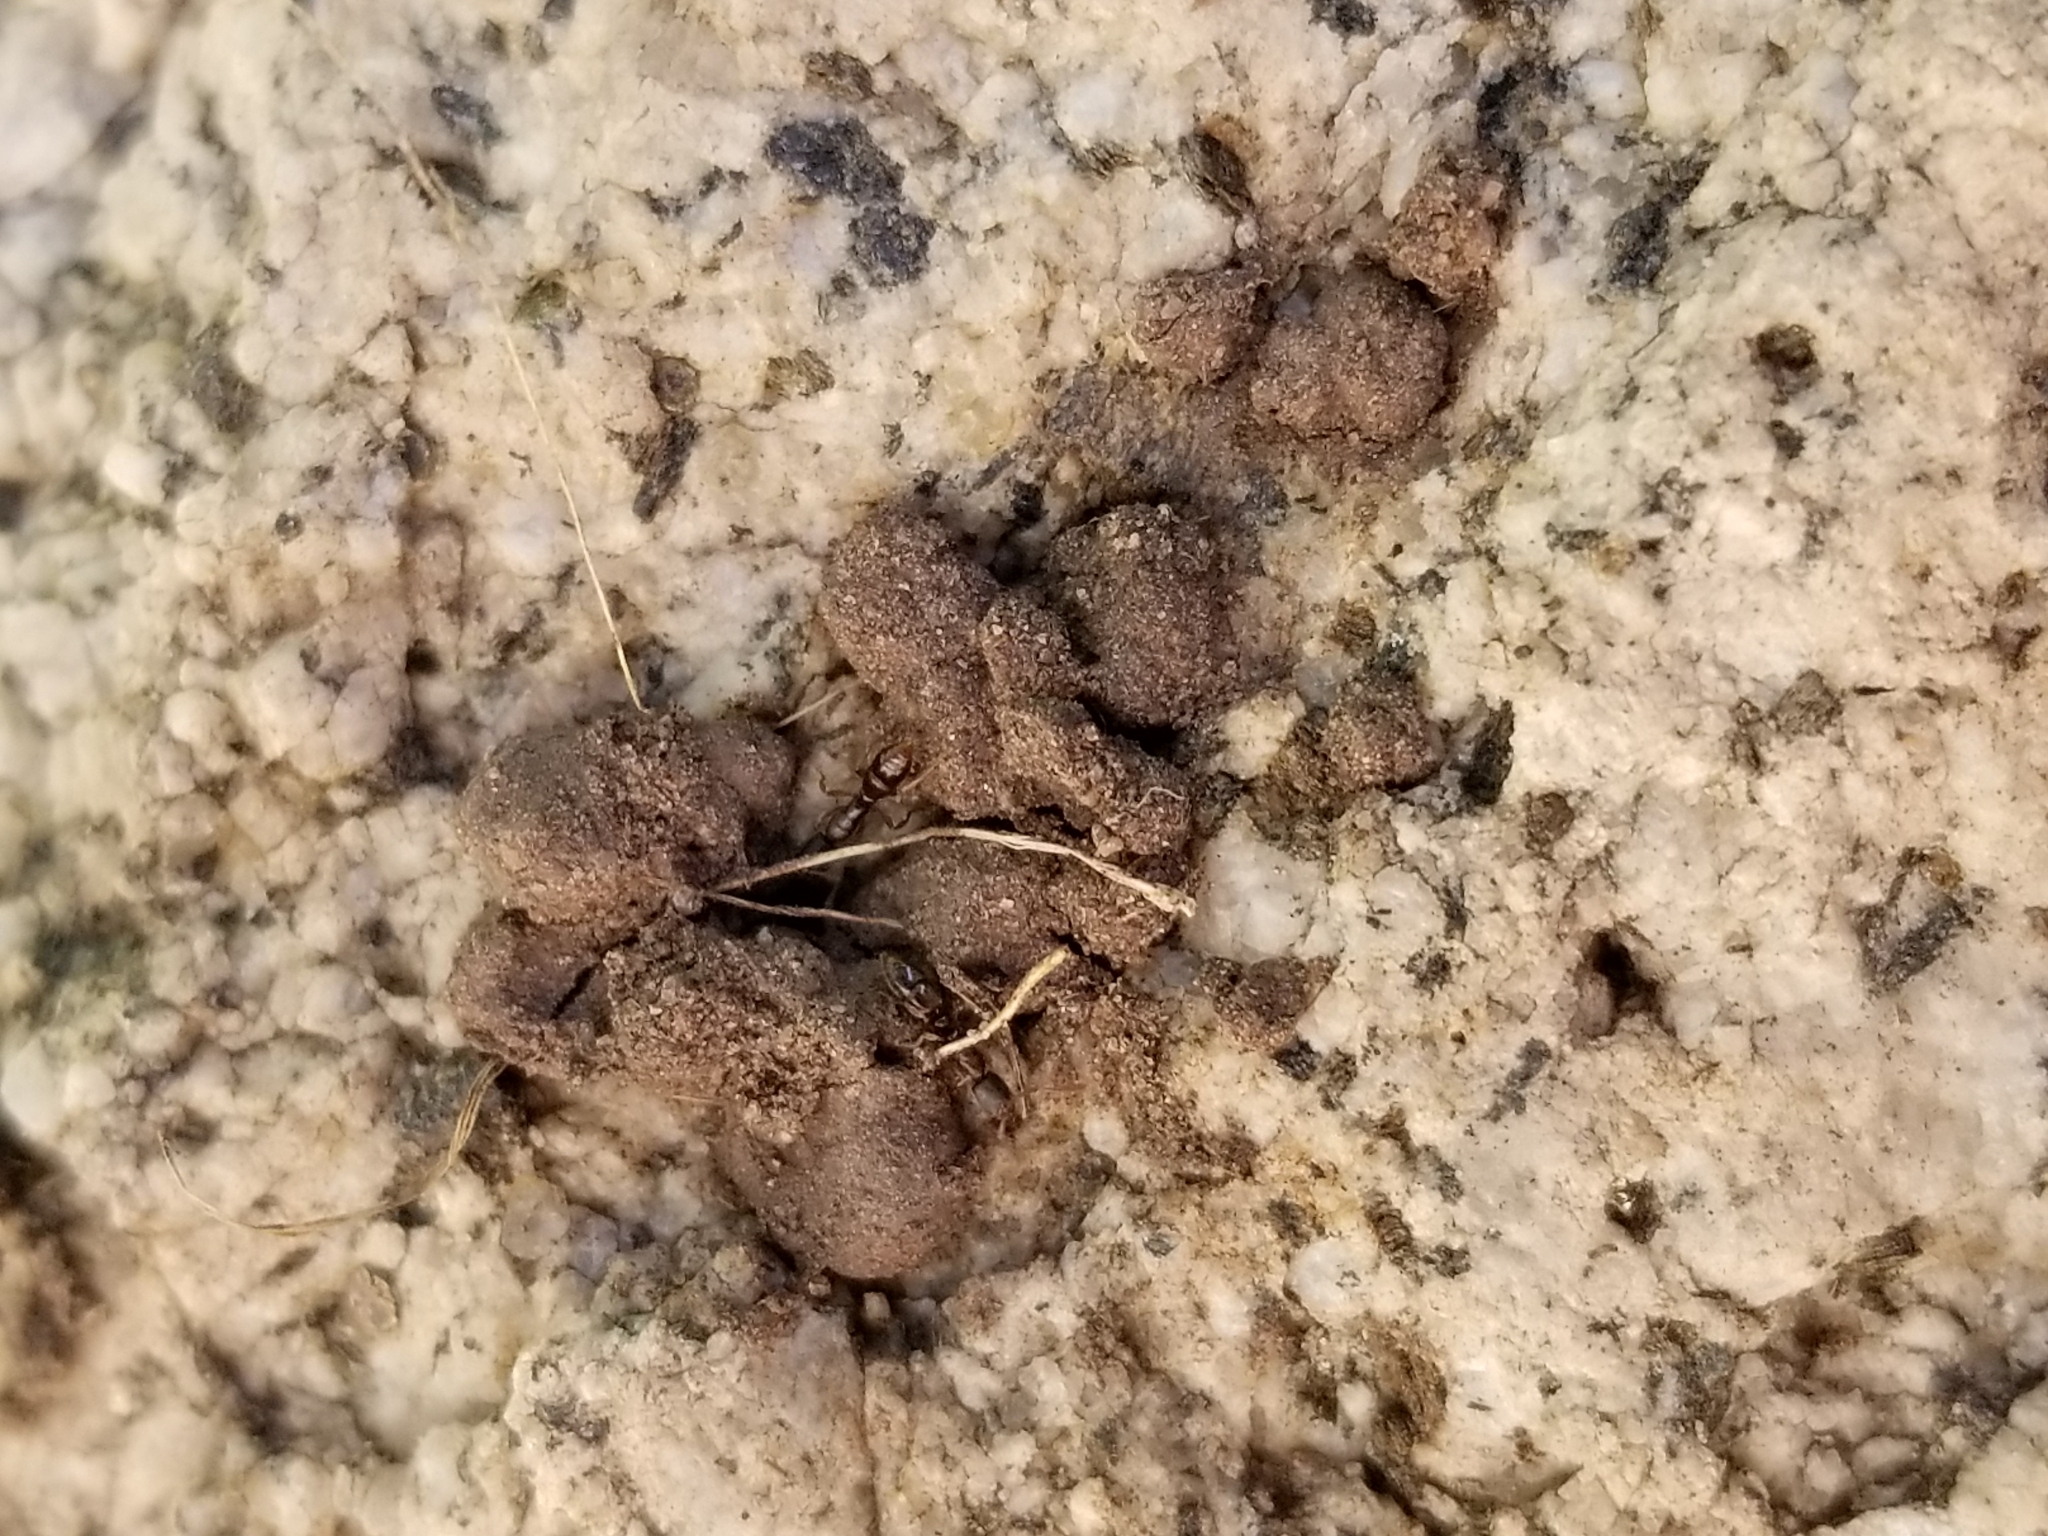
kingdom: Animalia
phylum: Arthropoda
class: Insecta
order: Hymenoptera
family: Formicidae
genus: Ponera
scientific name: Ponera pennsylvanica
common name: Pennsylvania ponera
